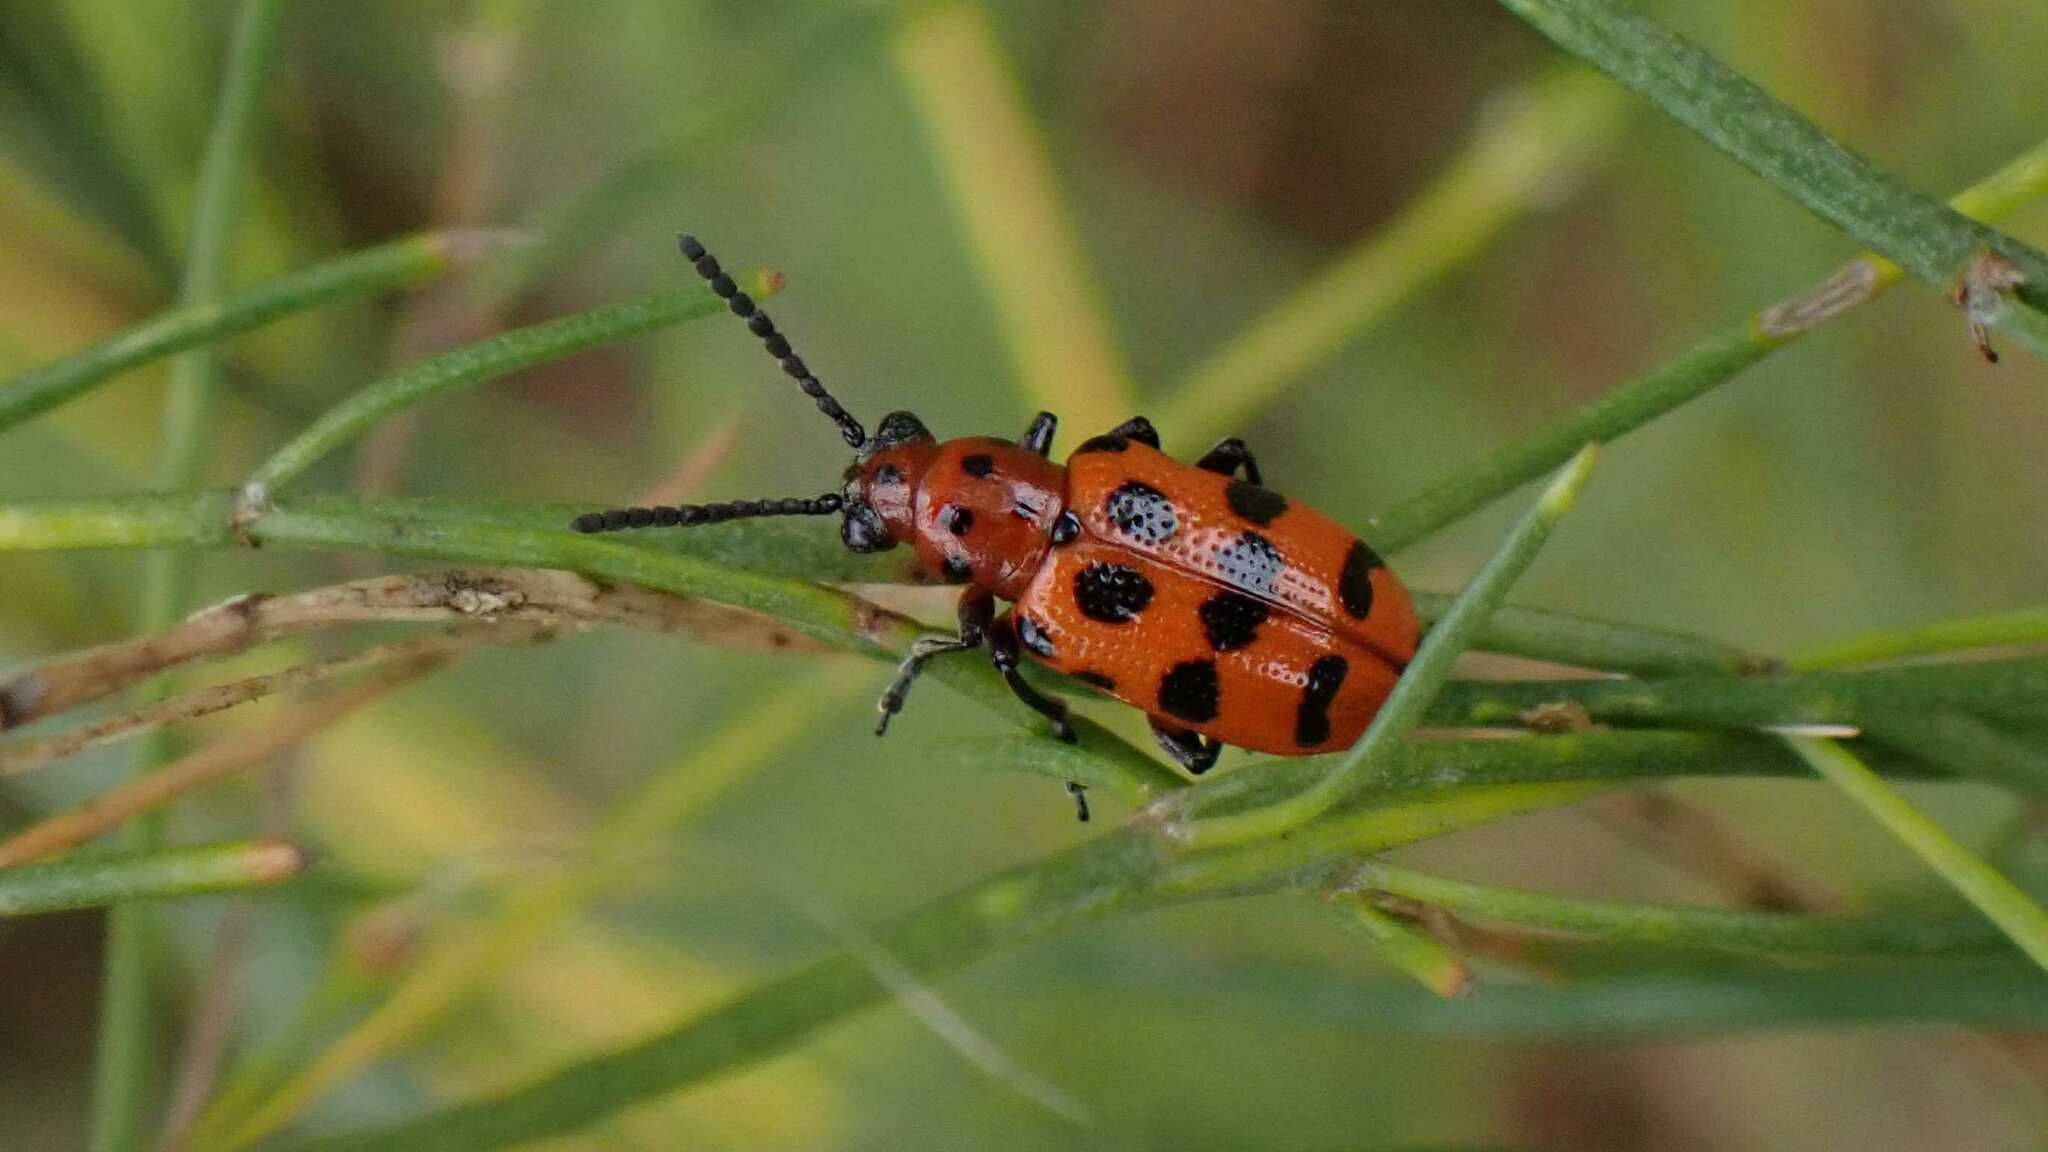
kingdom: Animalia
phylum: Arthropoda
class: Insecta
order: Coleoptera
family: Chrysomelidae
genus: Crioceris
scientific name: Crioceris quatuordecimpunctata
